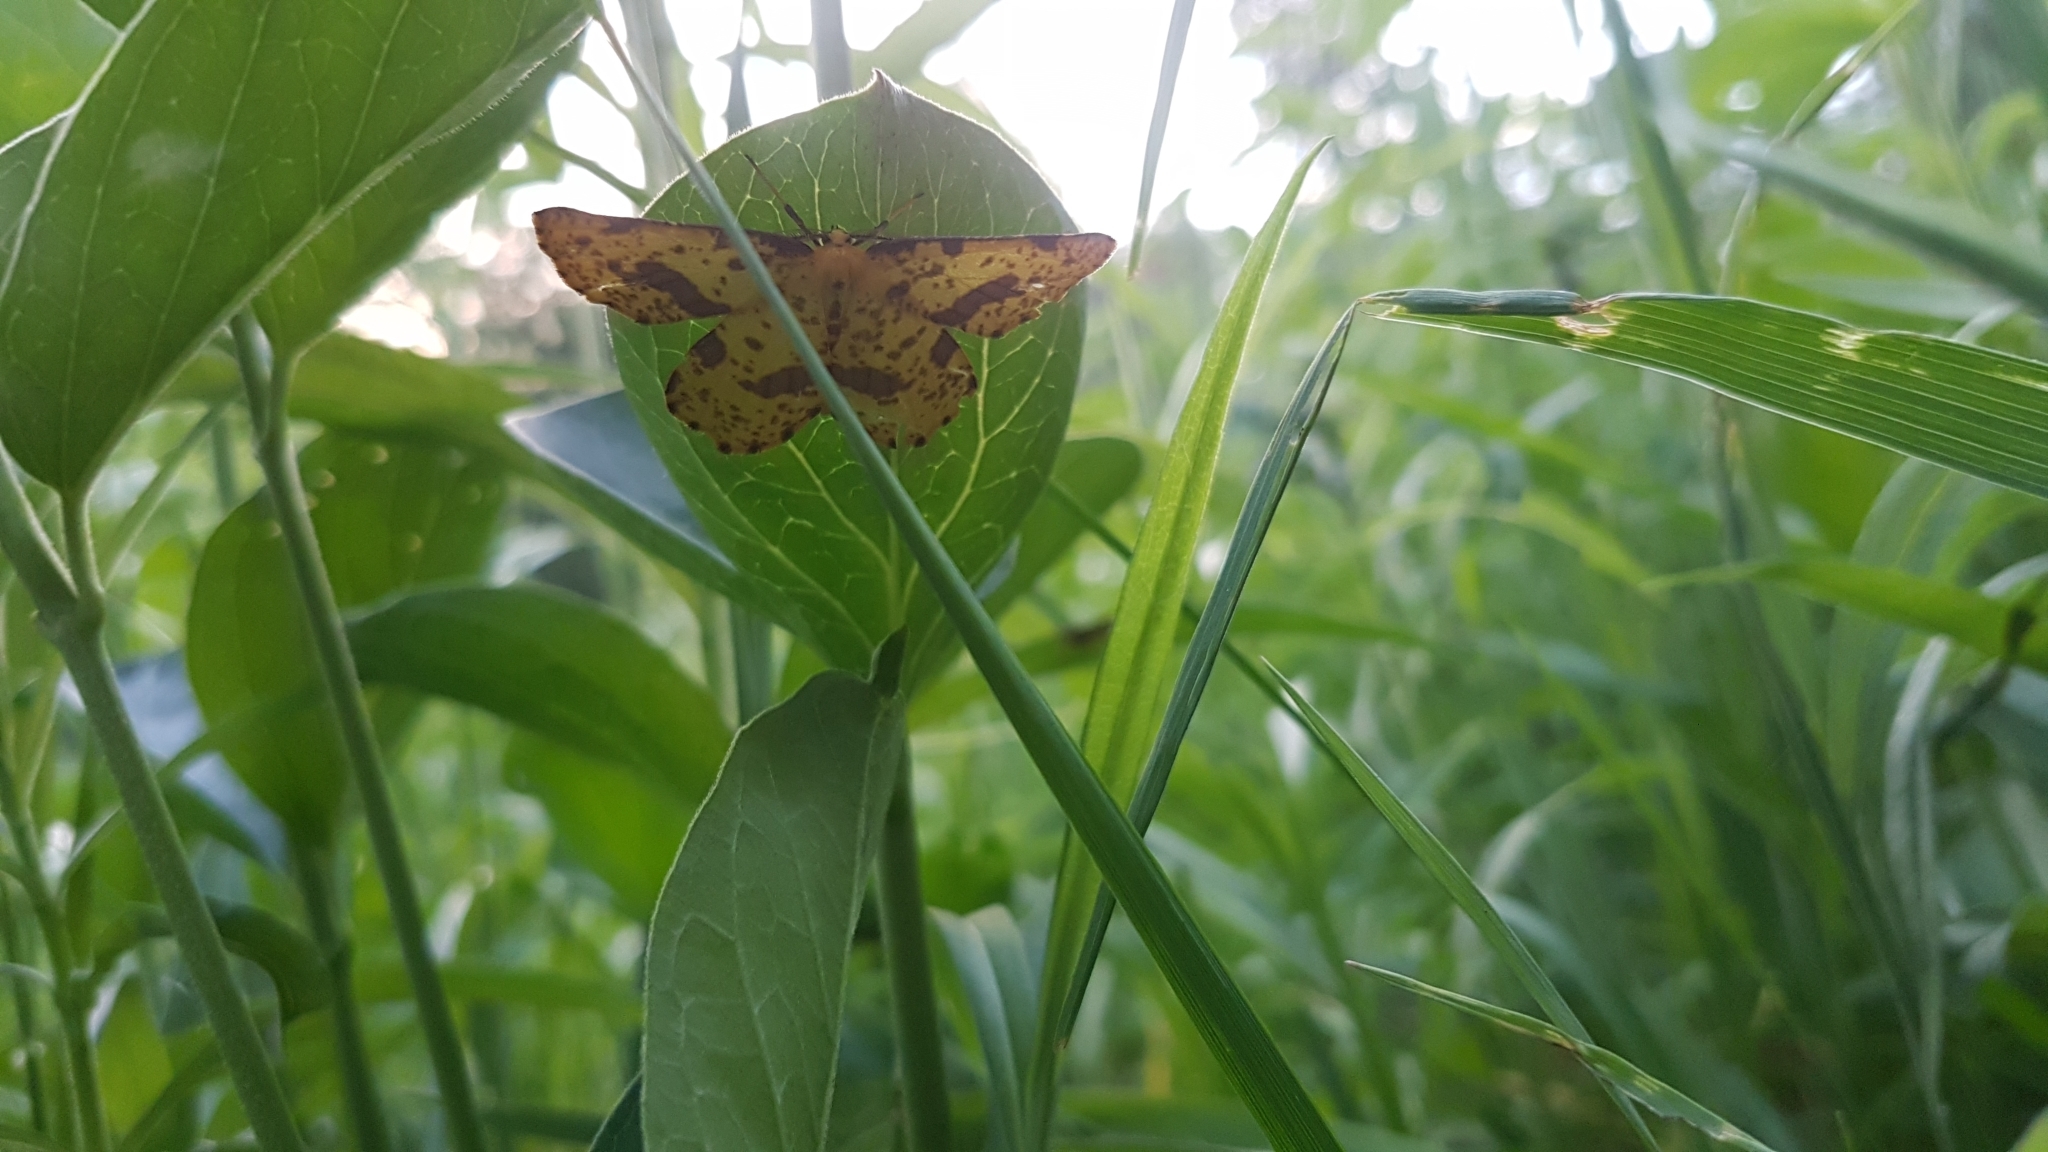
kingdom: Animalia
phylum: Arthropoda
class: Insecta
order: Lepidoptera
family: Geometridae
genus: Xanthotype
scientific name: Xanthotype
